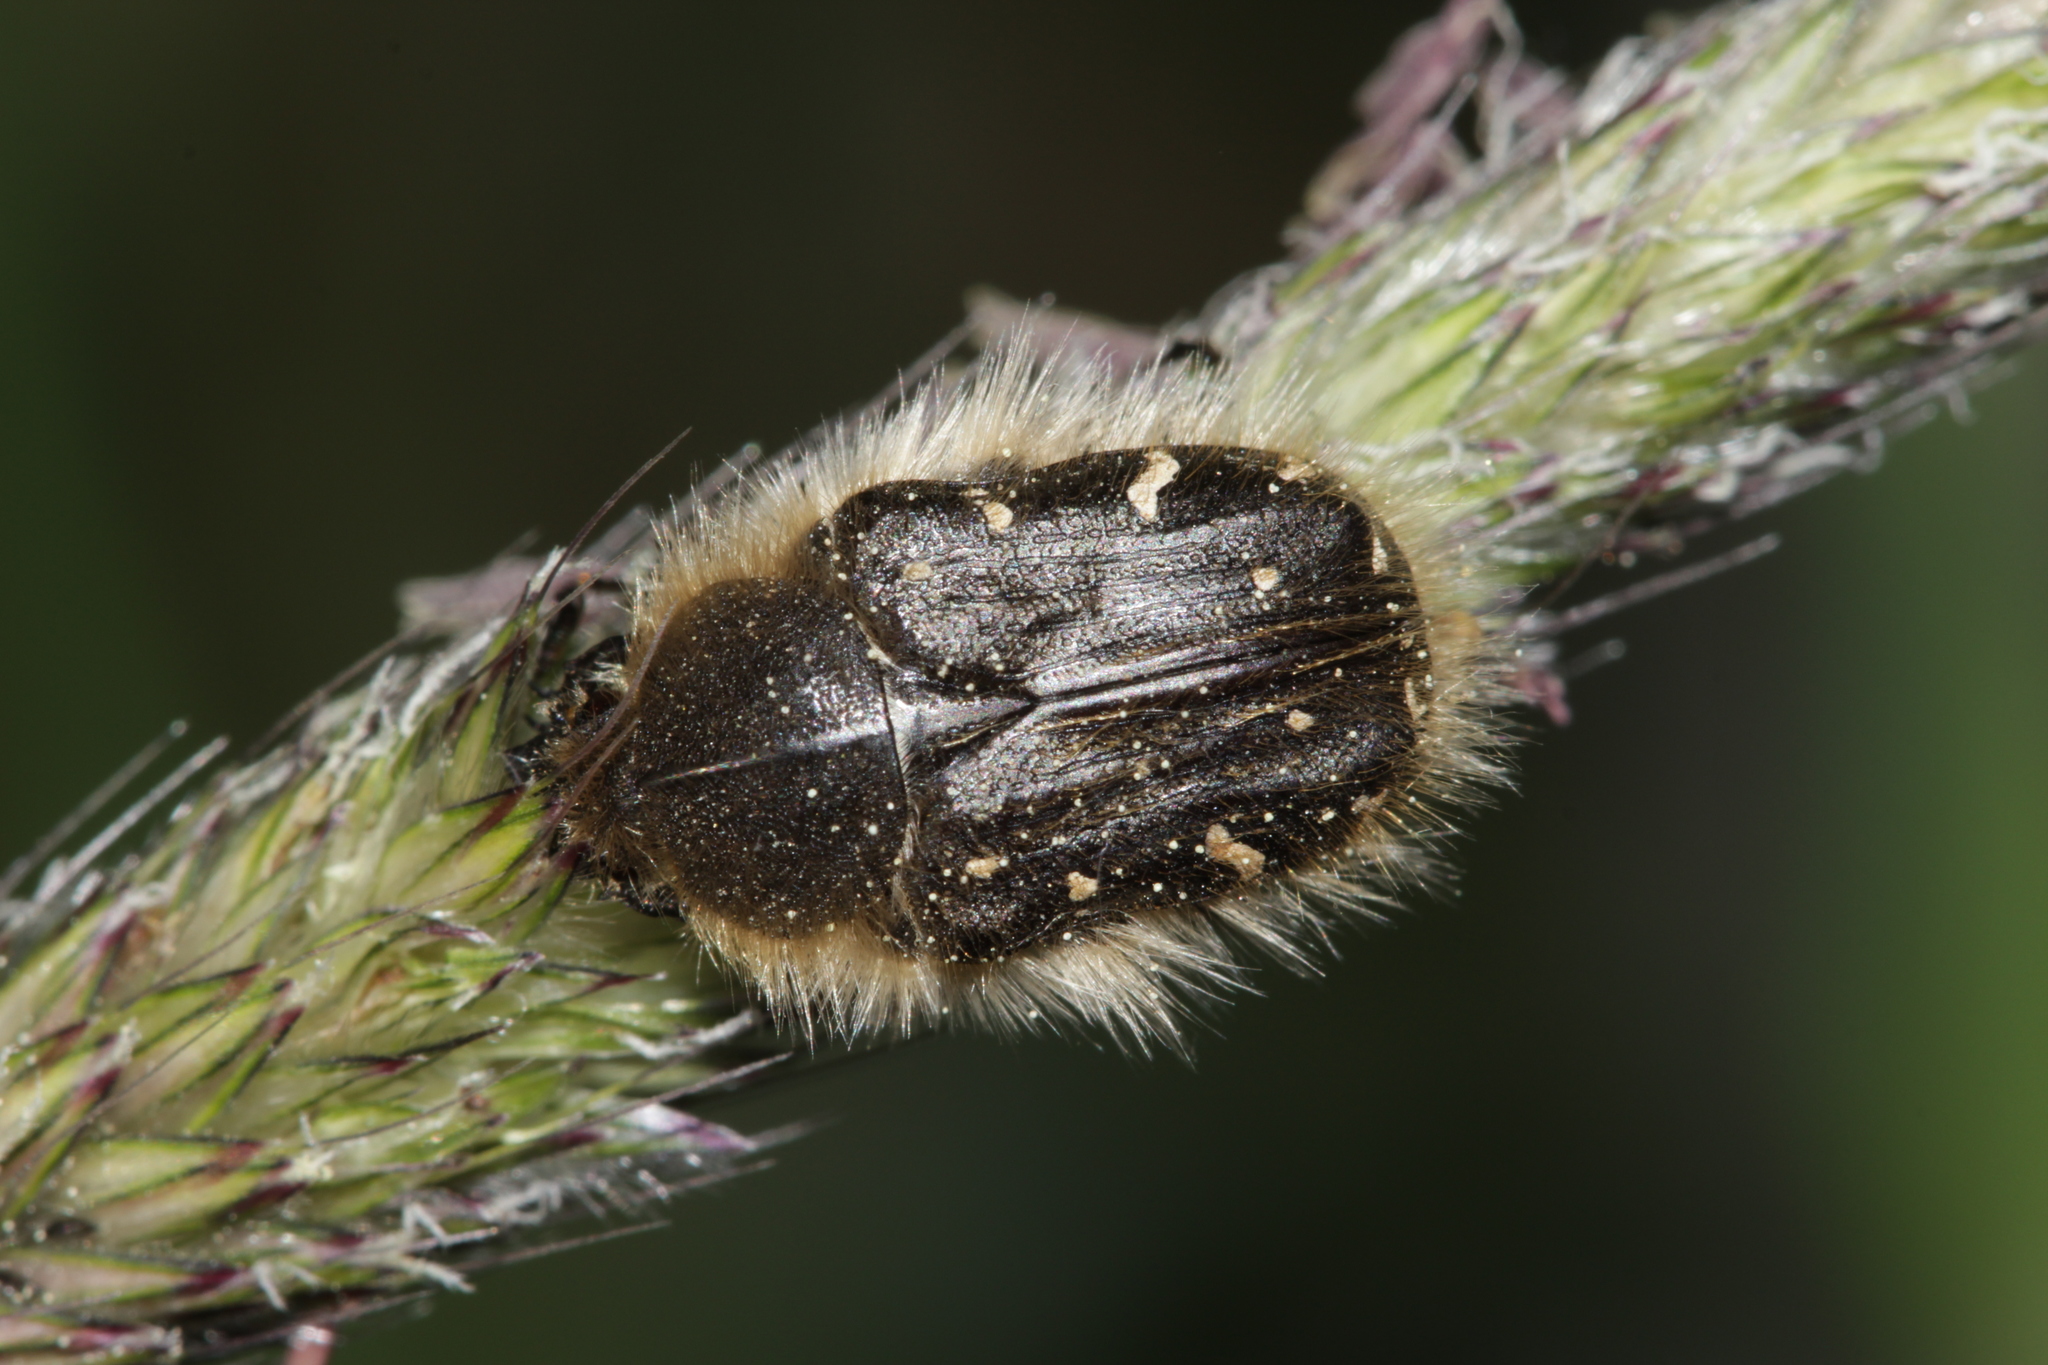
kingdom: Animalia
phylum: Arthropoda
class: Insecta
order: Coleoptera
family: Scarabaeidae
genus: Tropinota
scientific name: Tropinota hirta
